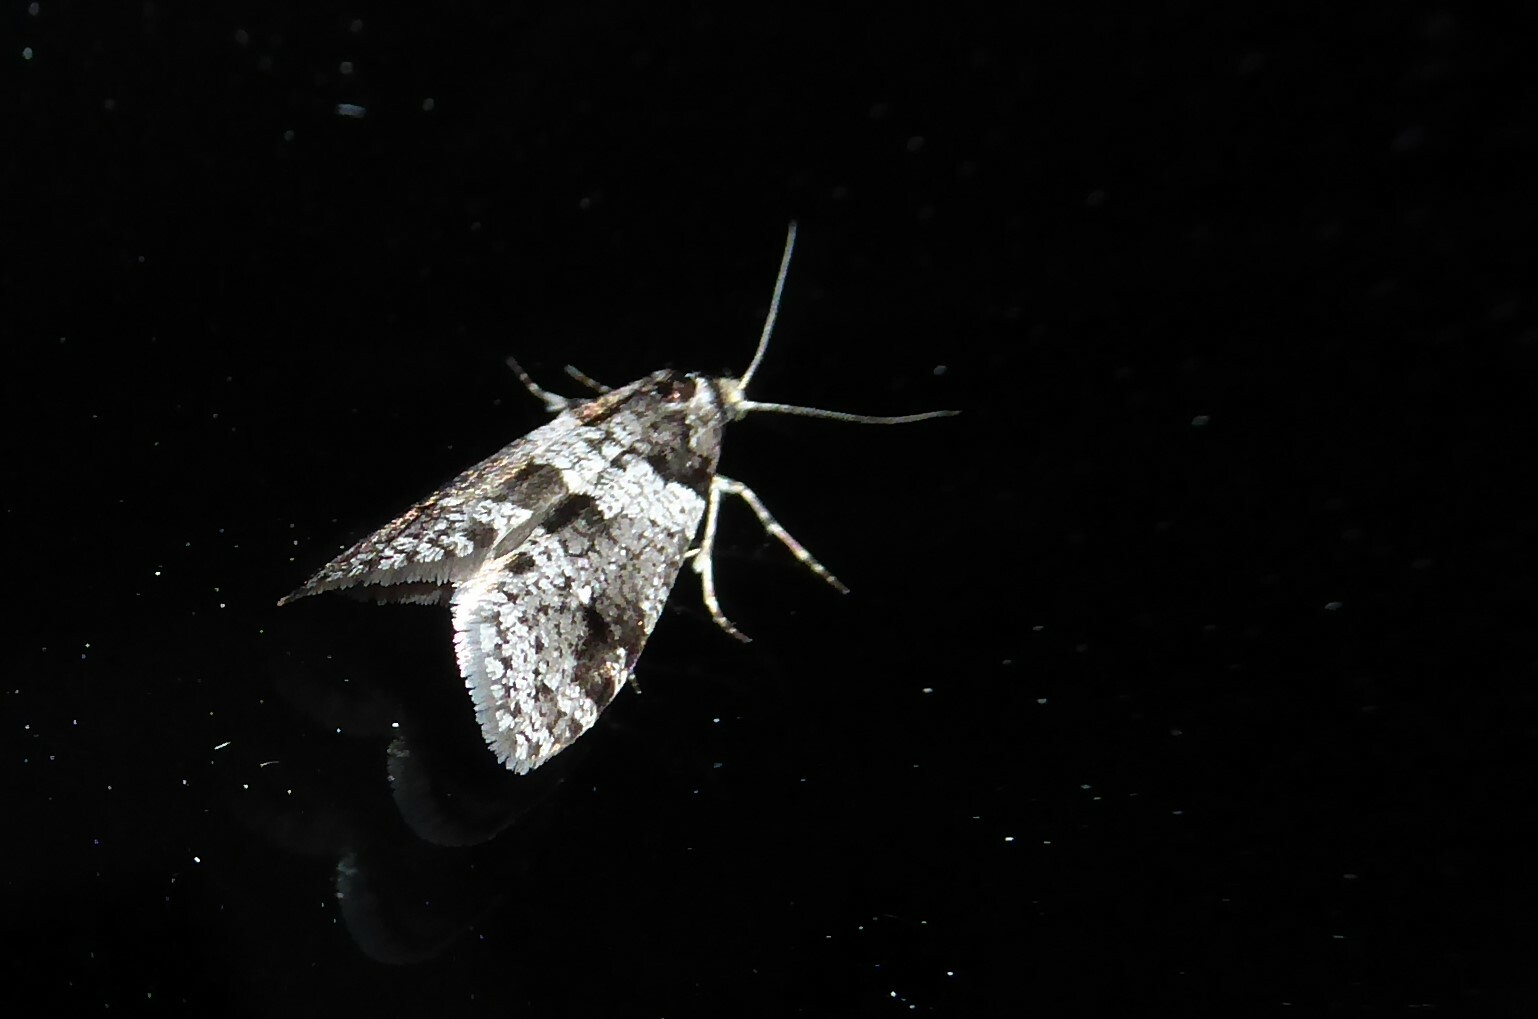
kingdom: Animalia
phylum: Arthropoda
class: Insecta
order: Lepidoptera
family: Psychidae
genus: Lepidoscia
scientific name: Lepidoscia heliochares
